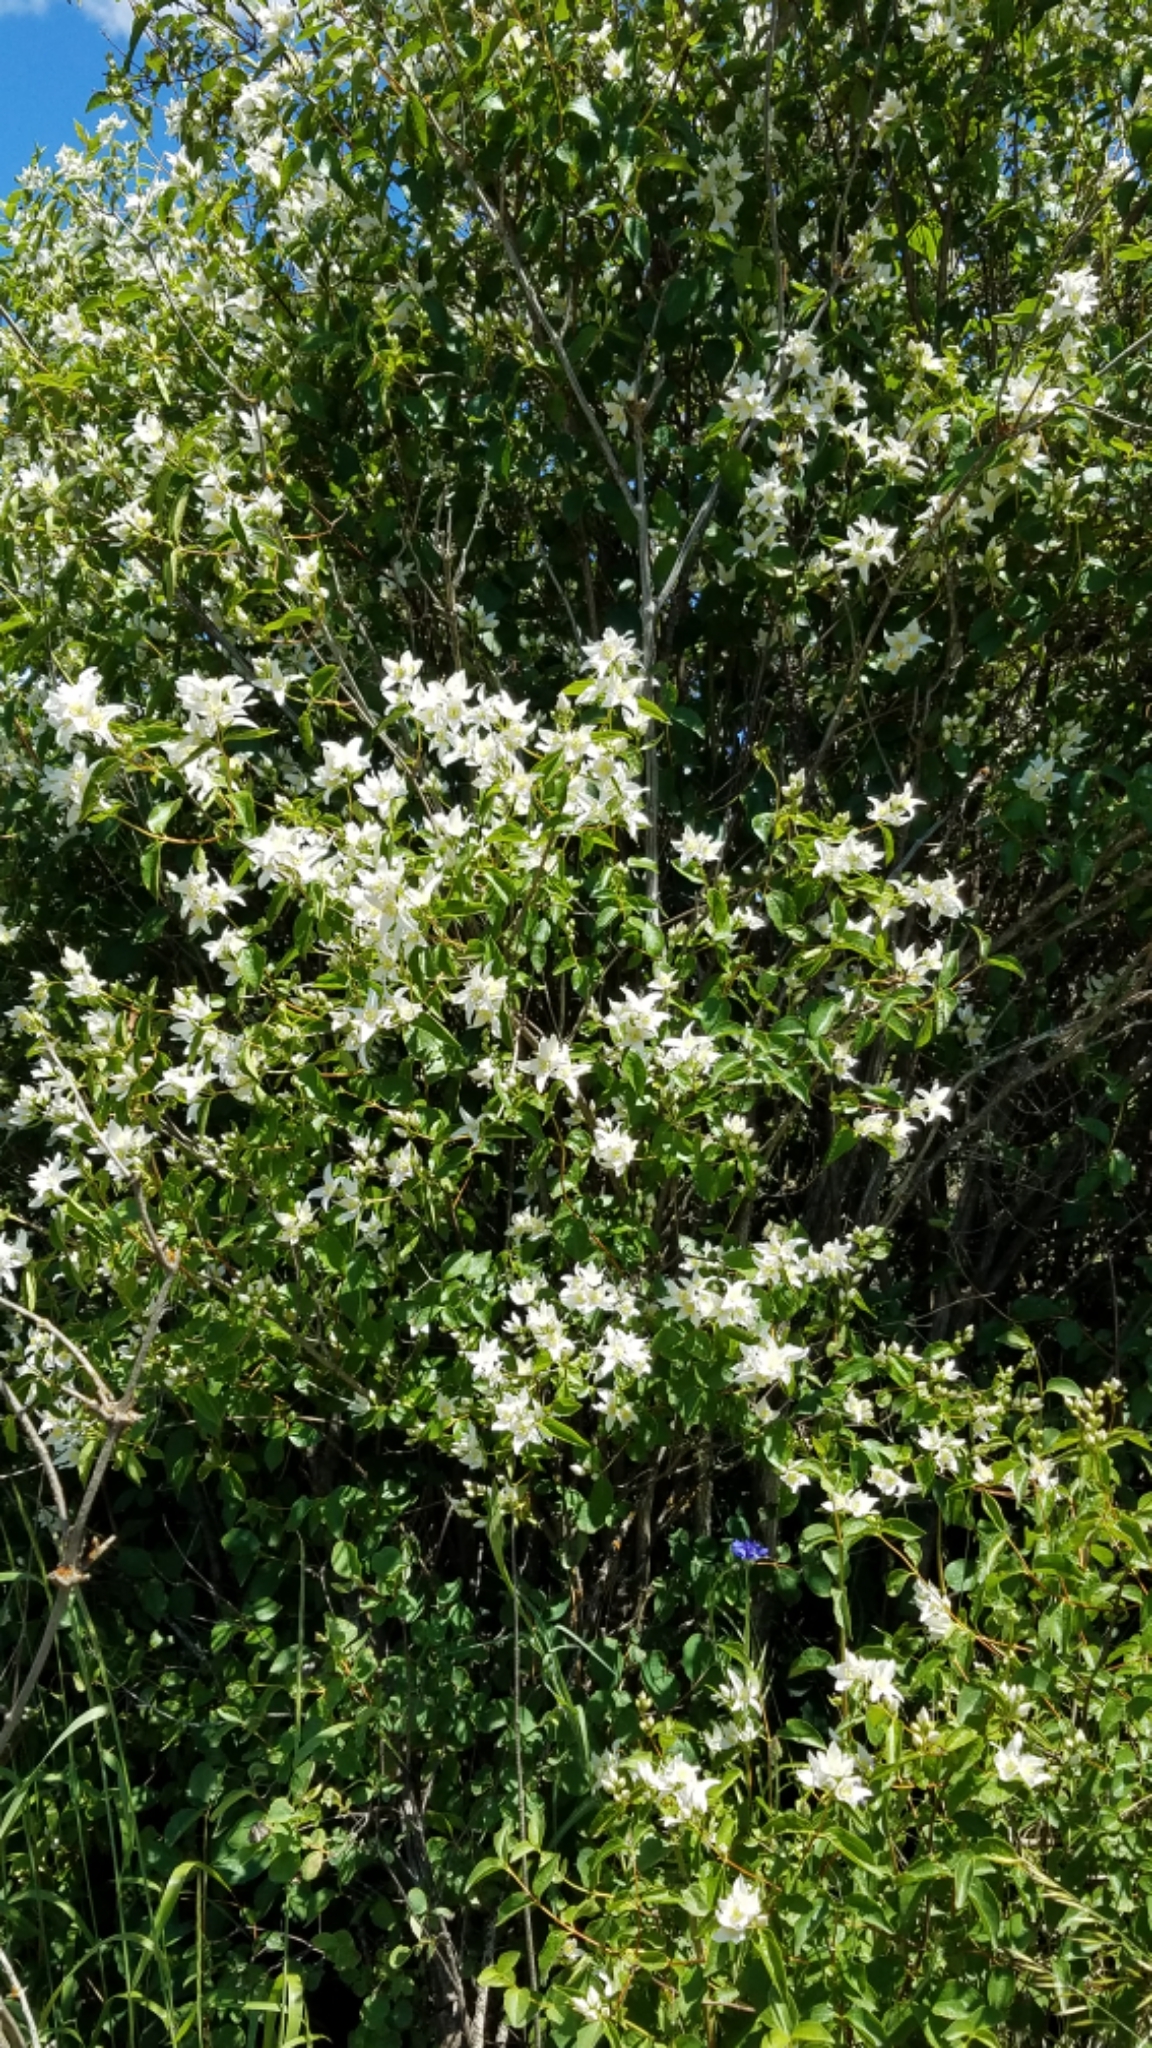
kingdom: Plantae
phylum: Tracheophyta
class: Magnoliopsida
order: Cornales
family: Hydrangeaceae
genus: Philadelphus
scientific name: Philadelphus lewisii
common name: Lewis's mock orange
